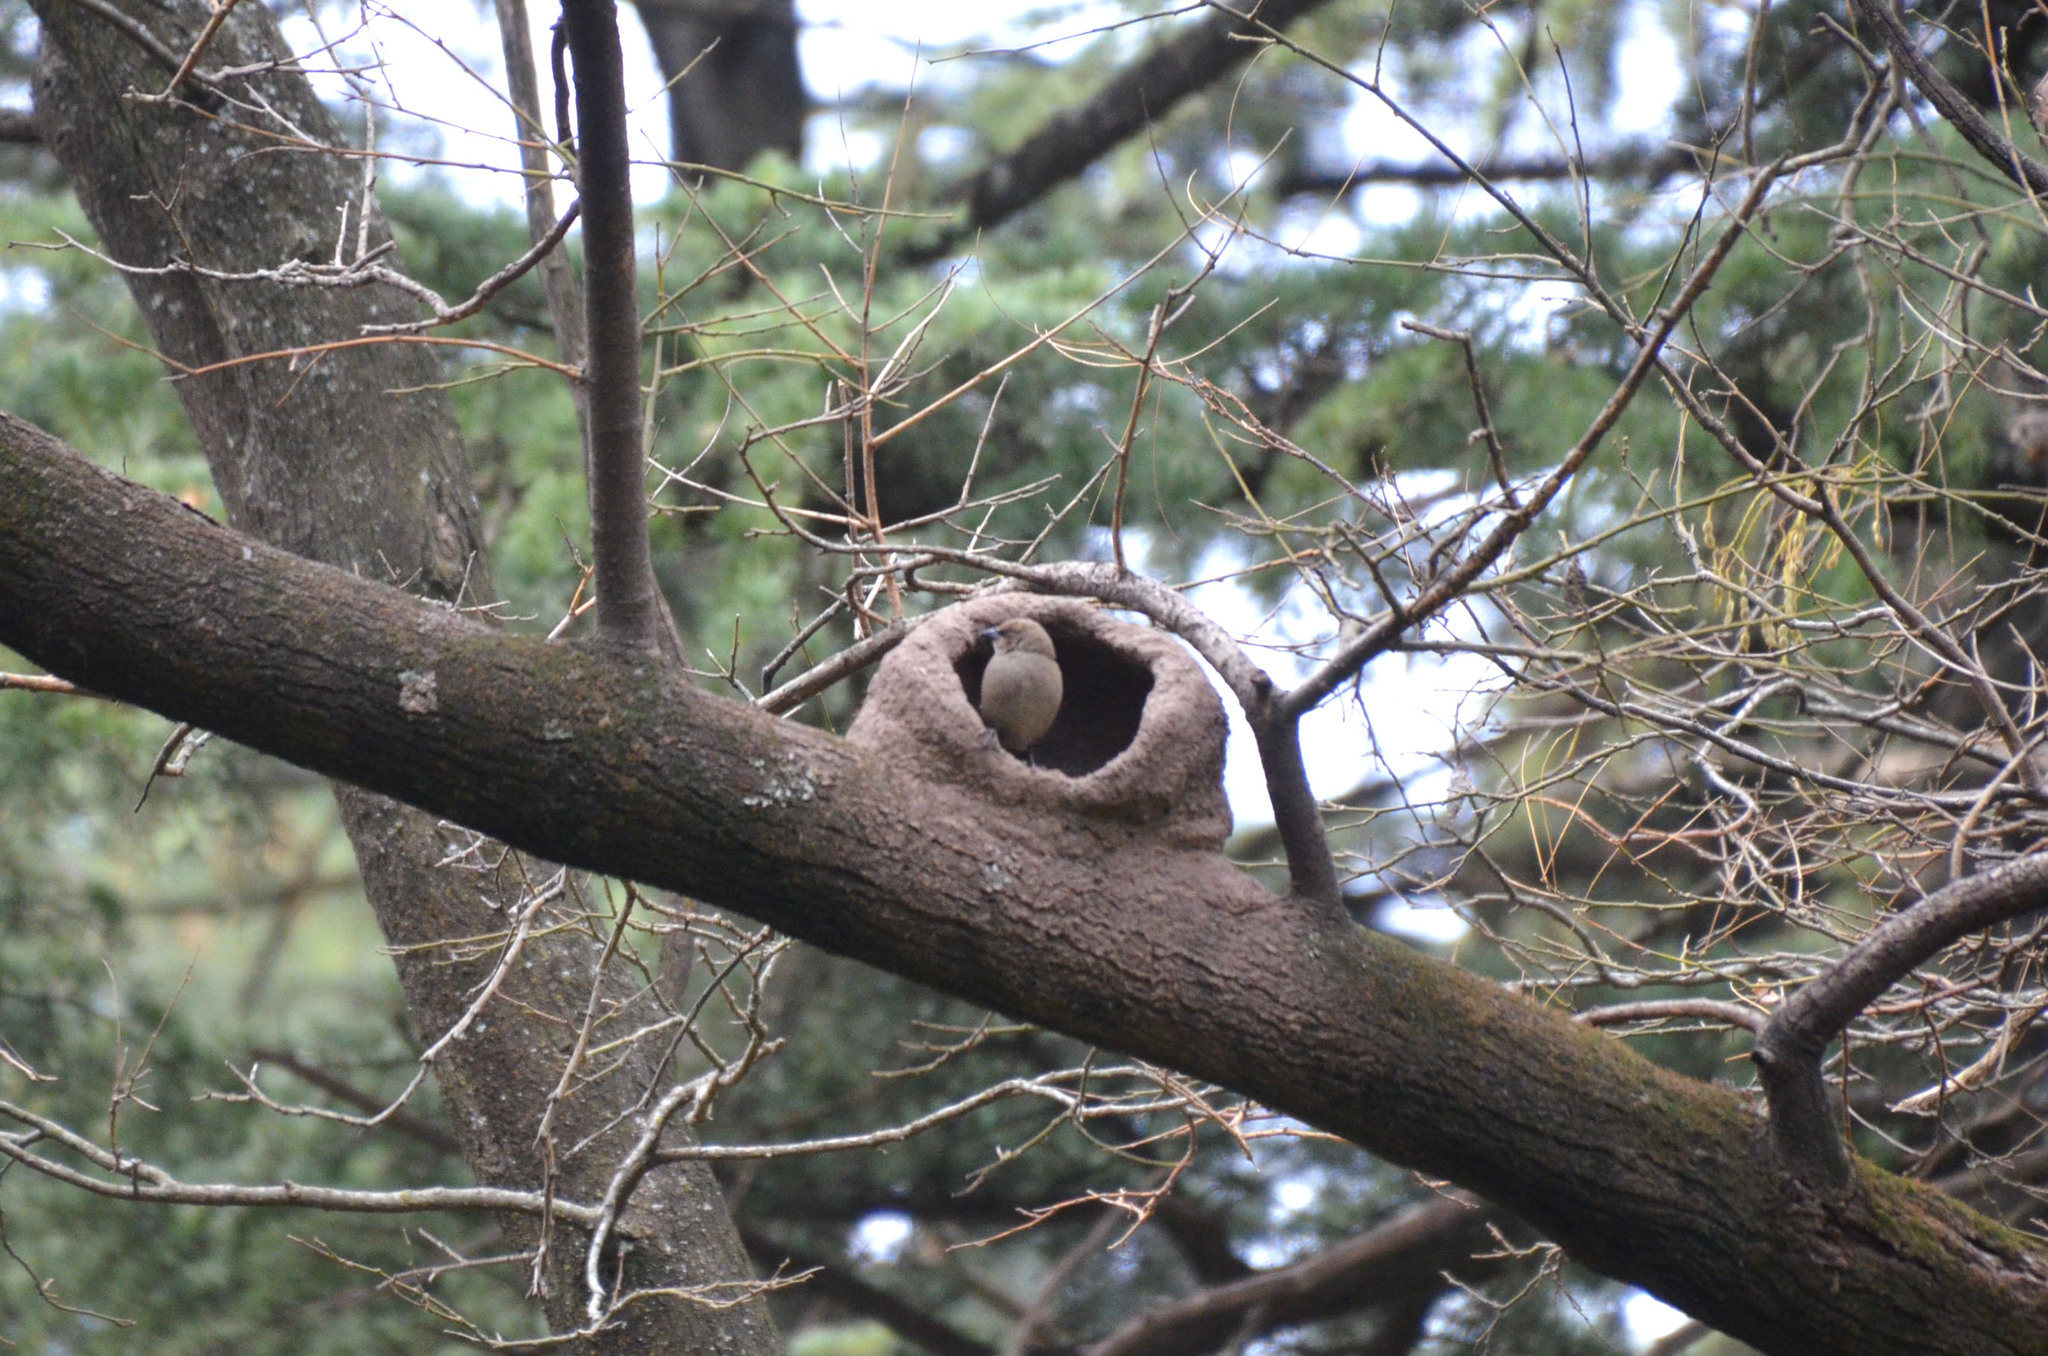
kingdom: Animalia
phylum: Chordata
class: Aves
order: Passeriformes
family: Icteridae
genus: Agelaioides
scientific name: Agelaioides badius
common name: Baywing
